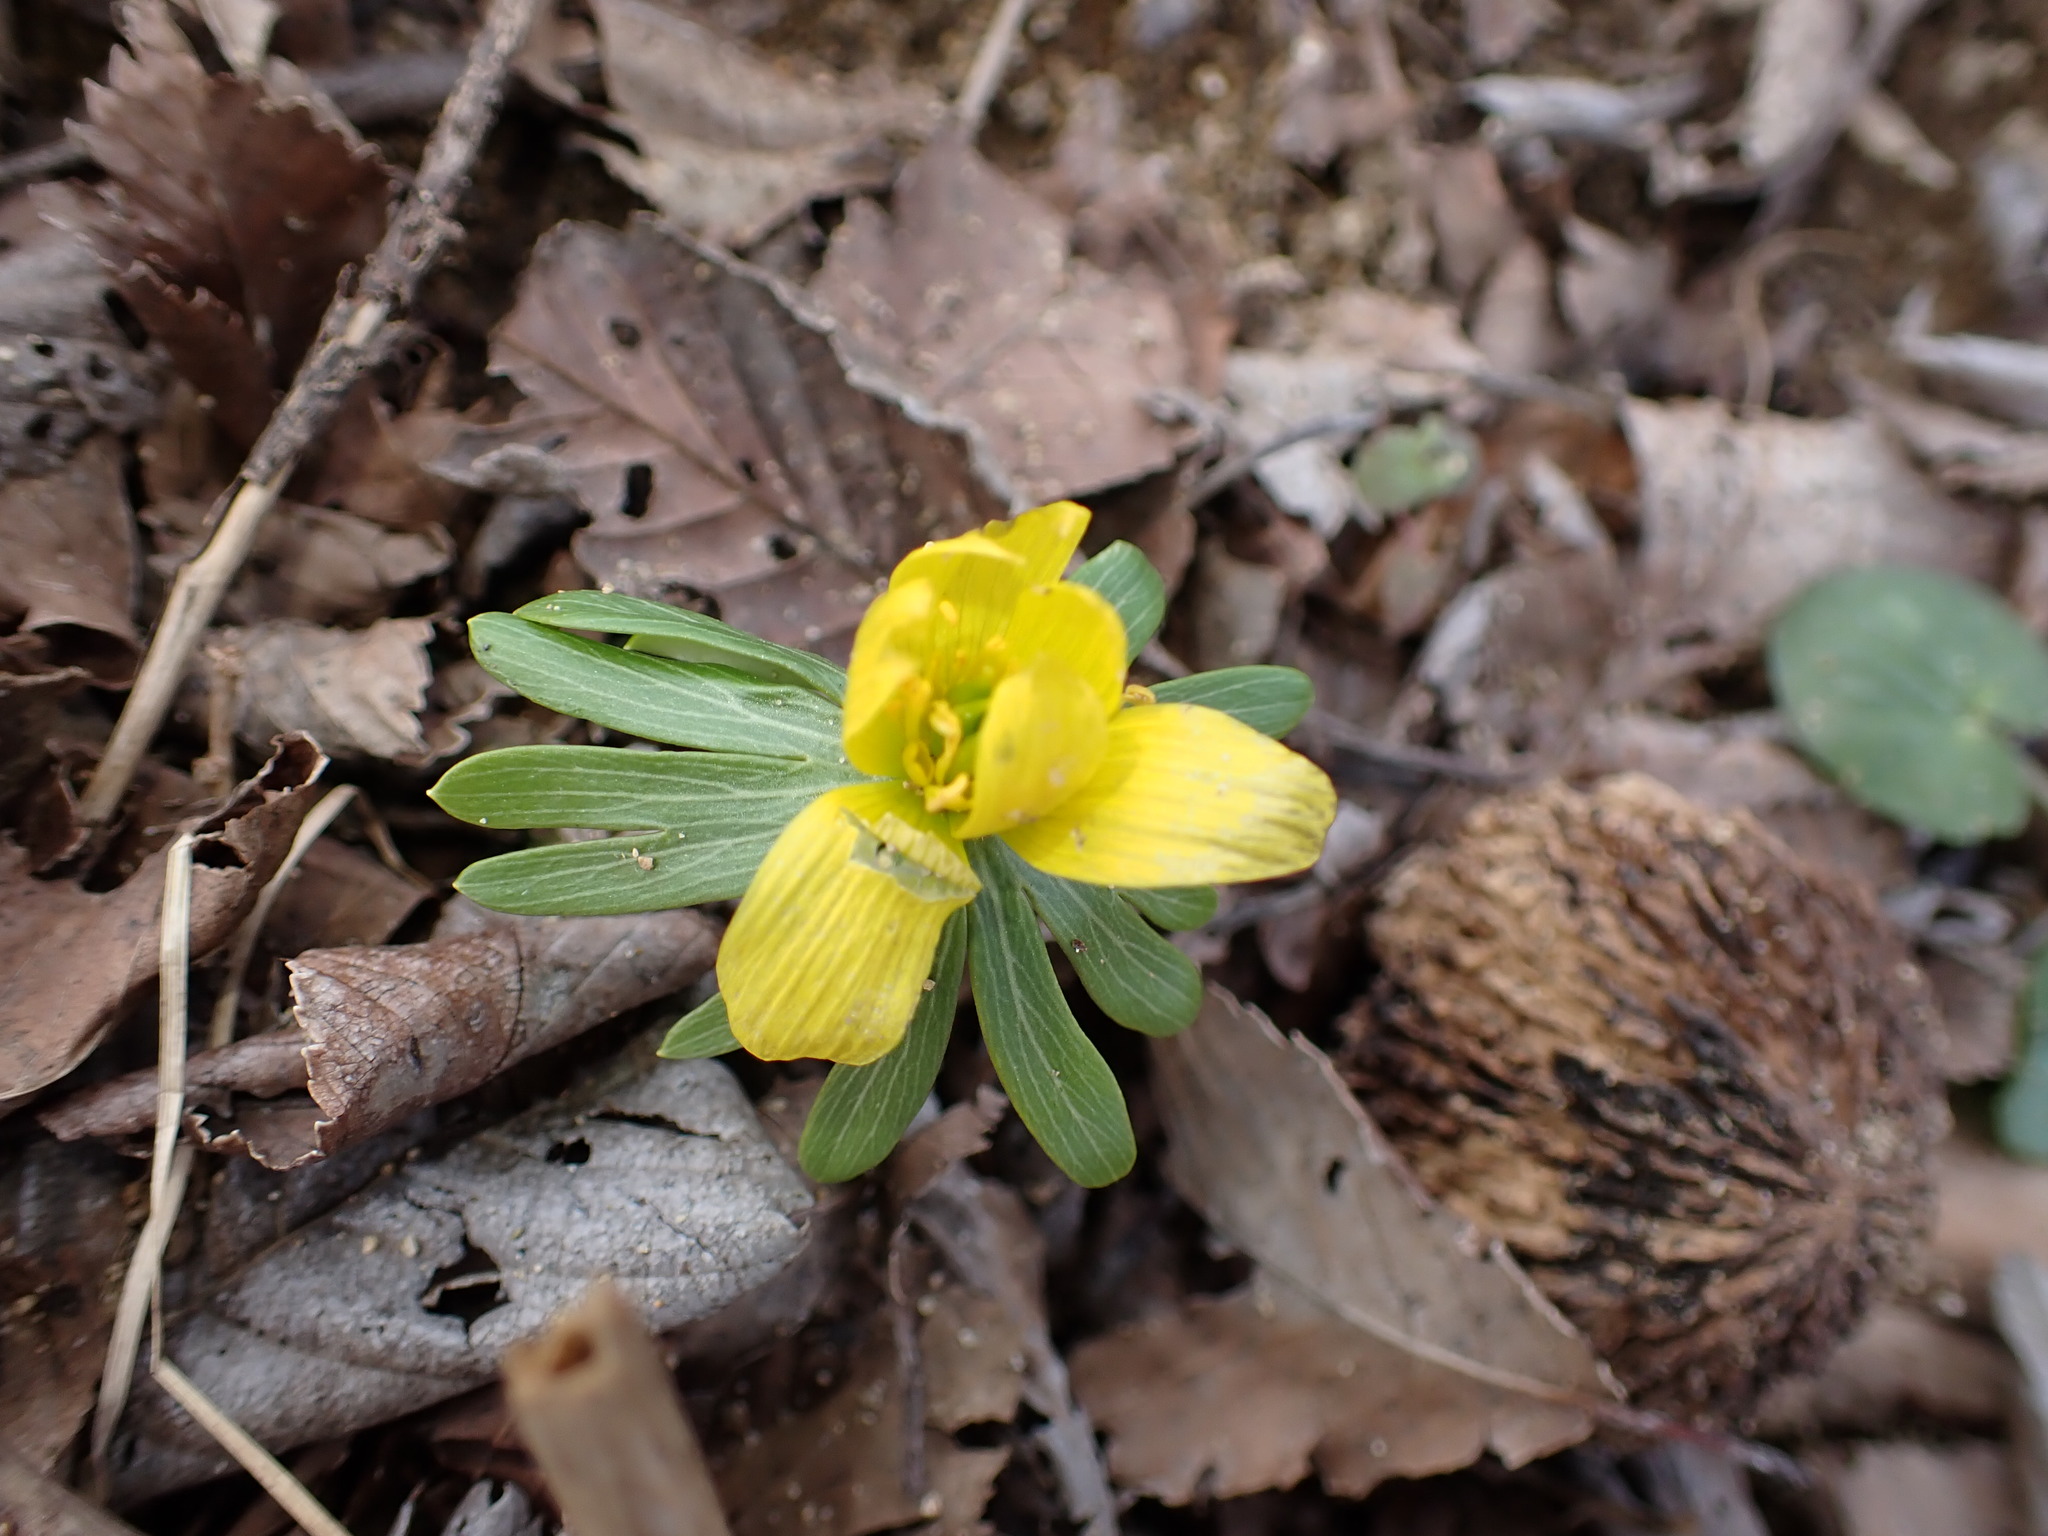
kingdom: Plantae
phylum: Tracheophyta
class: Magnoliopsida
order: Ranunculales
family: Ranunculaceae
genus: Eranthis
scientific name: Eranthis hyemalis
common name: Winter aconite
